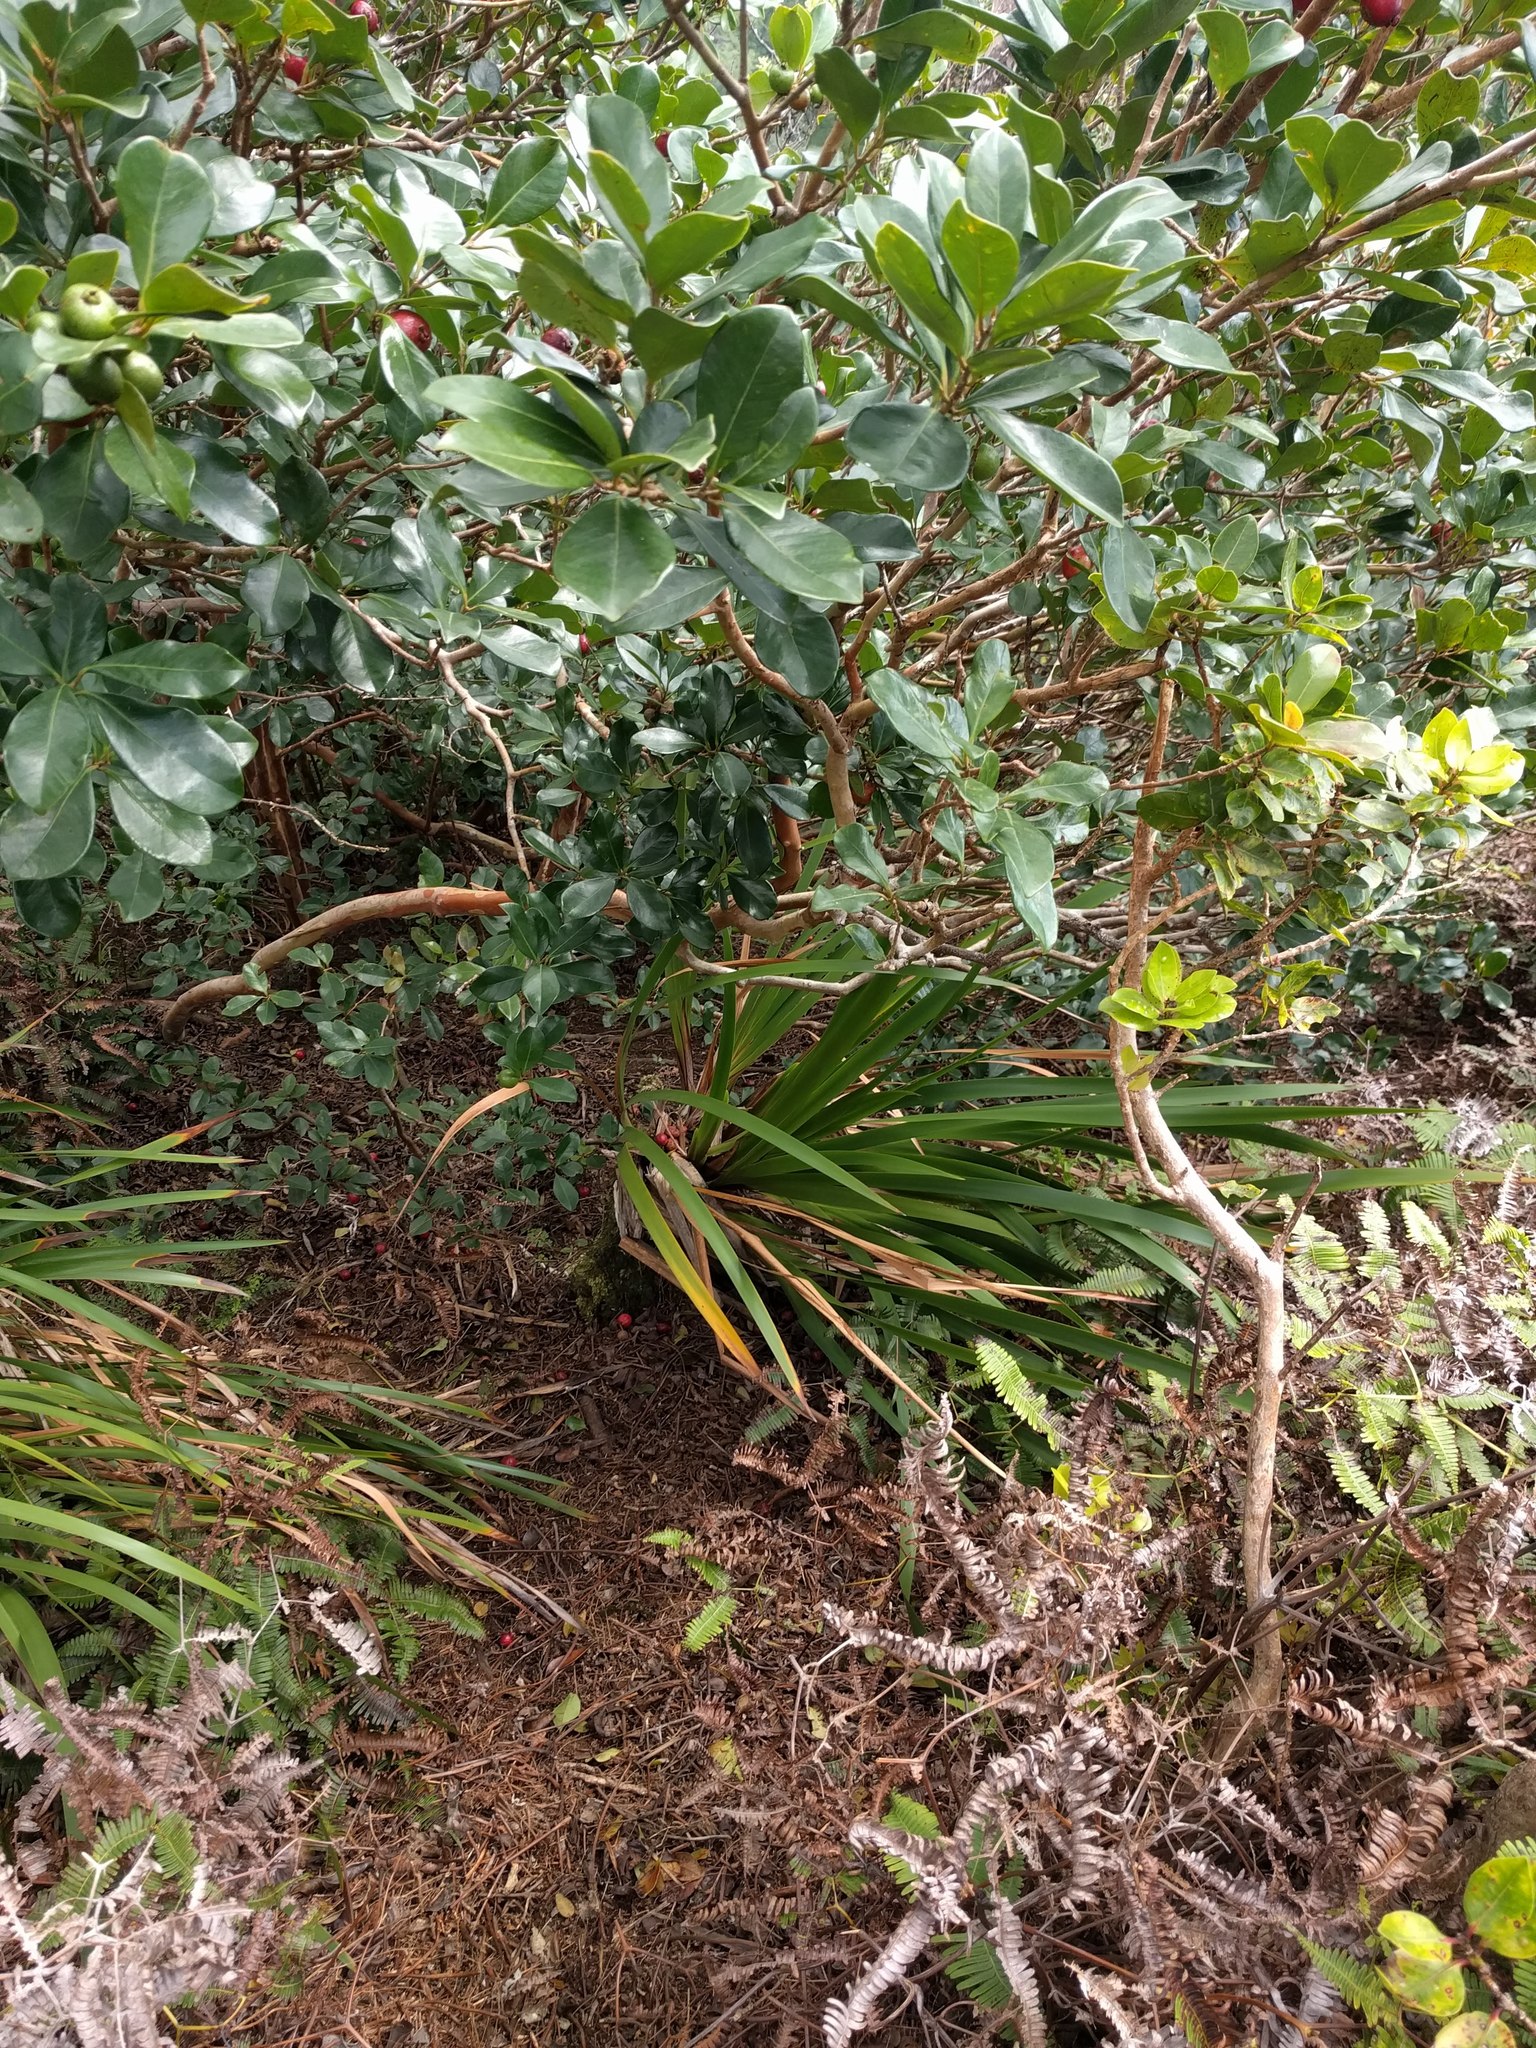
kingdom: Plantae
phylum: Tracheophyta
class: Liliopsida
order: Poales
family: Cyperaceae
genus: Machaerina
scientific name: Machaerina angustifolia
